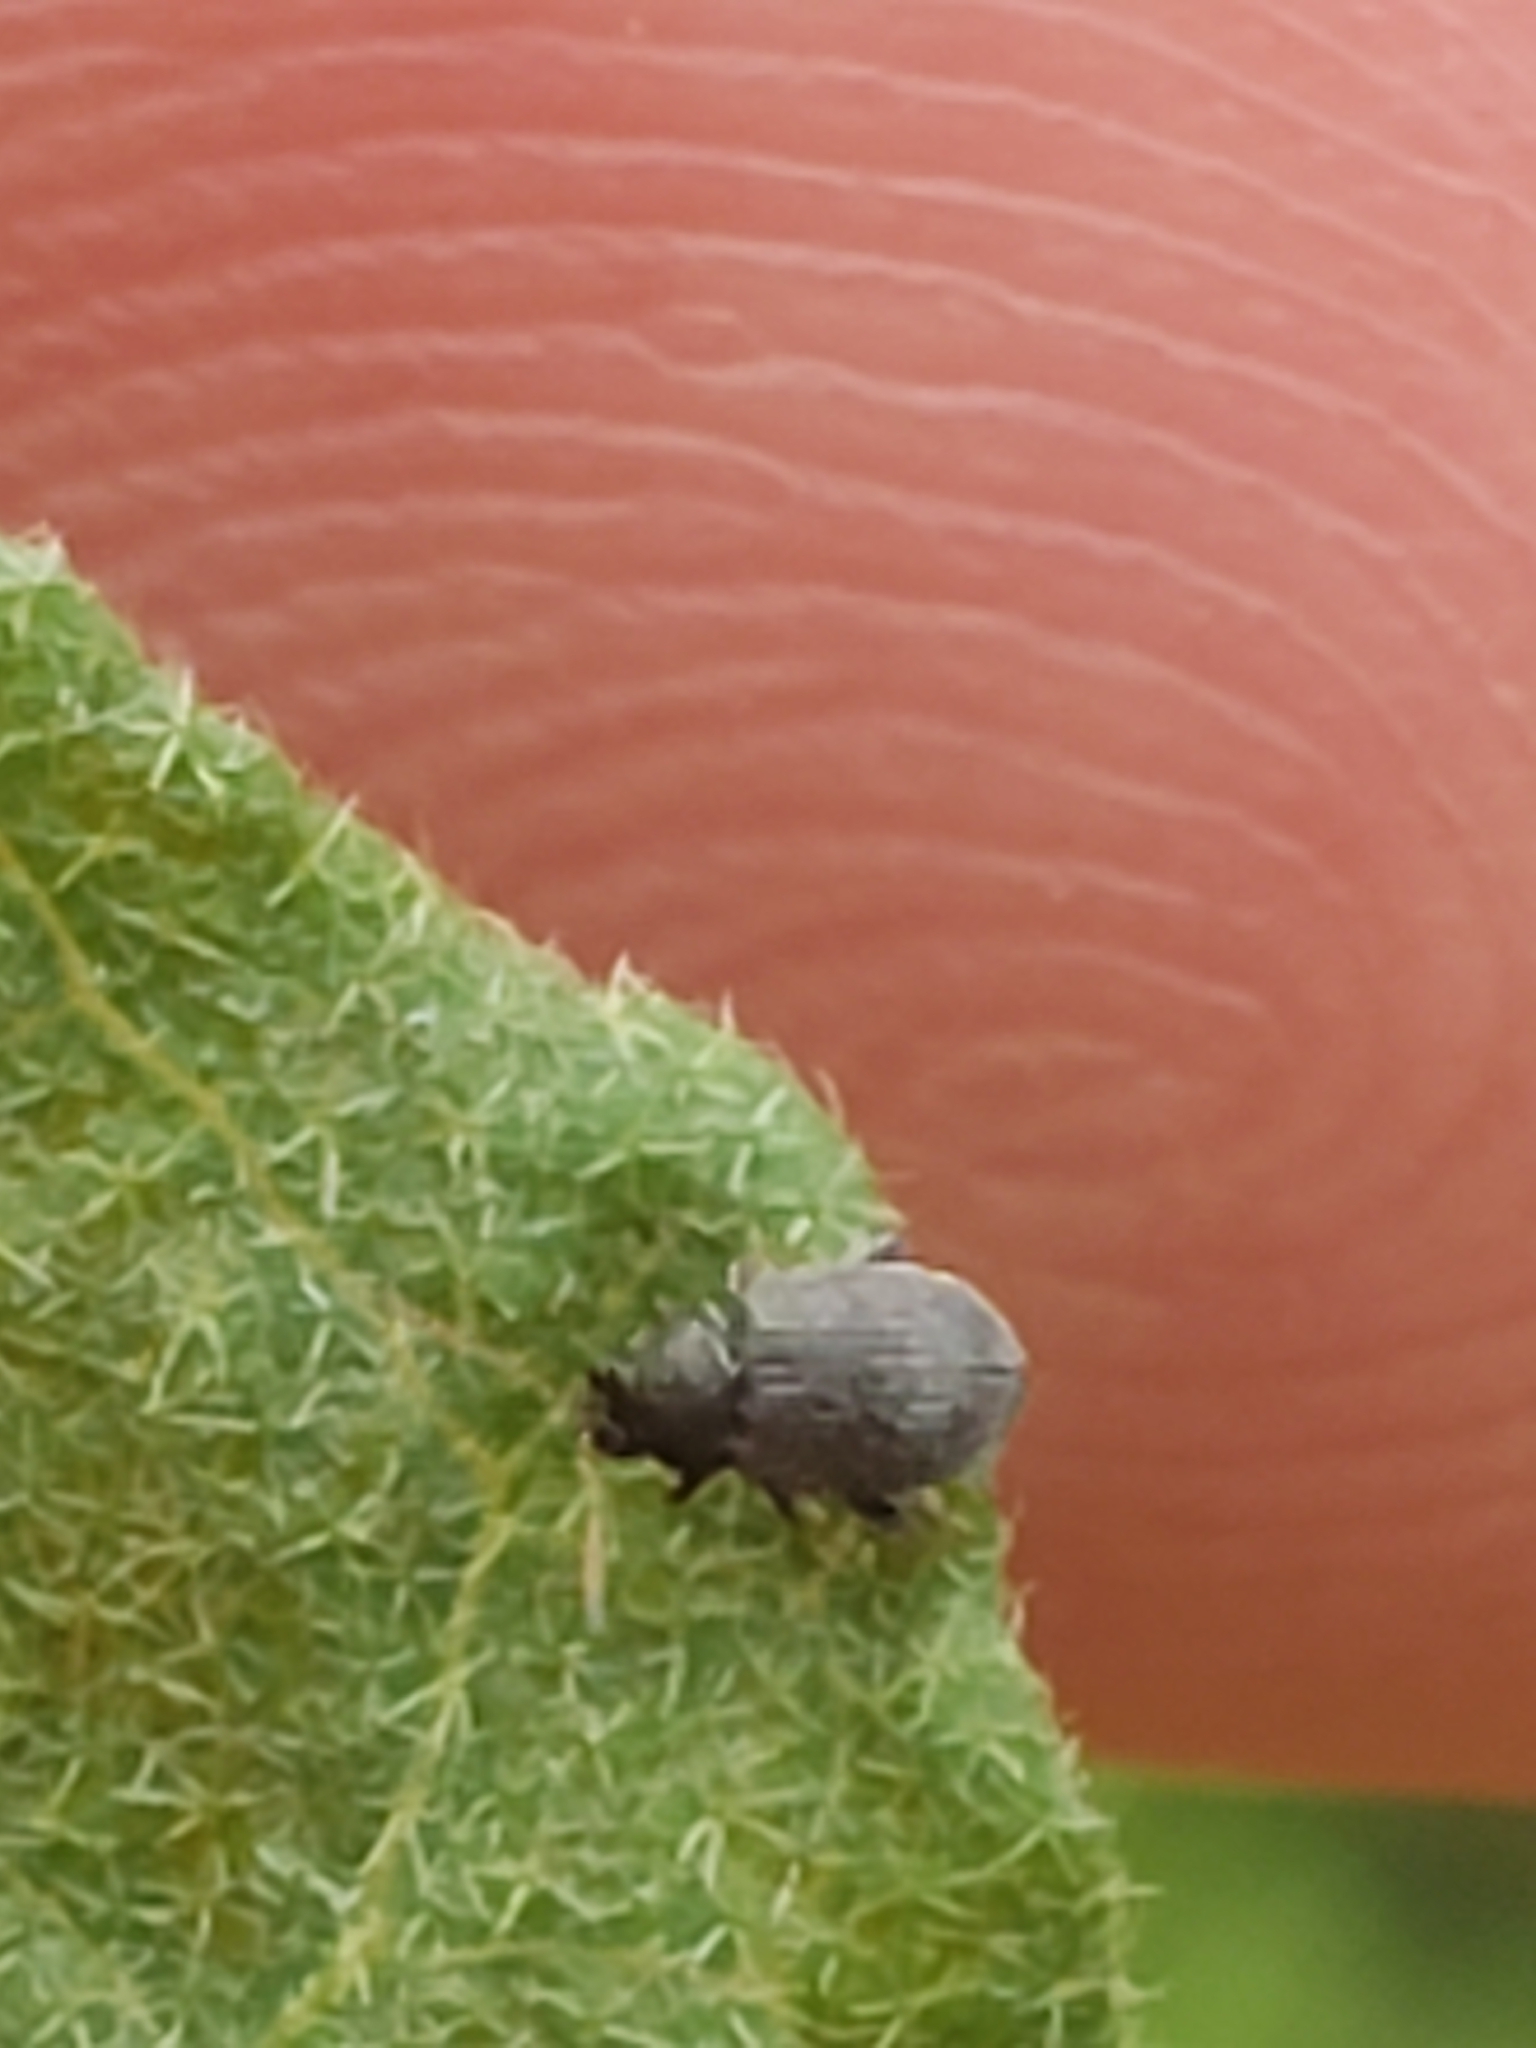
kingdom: Animalia
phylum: Arthropoda
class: Insecta
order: Coleoptera
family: Chrysomelidae
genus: Epitrix
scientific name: Epitrix fuscula
